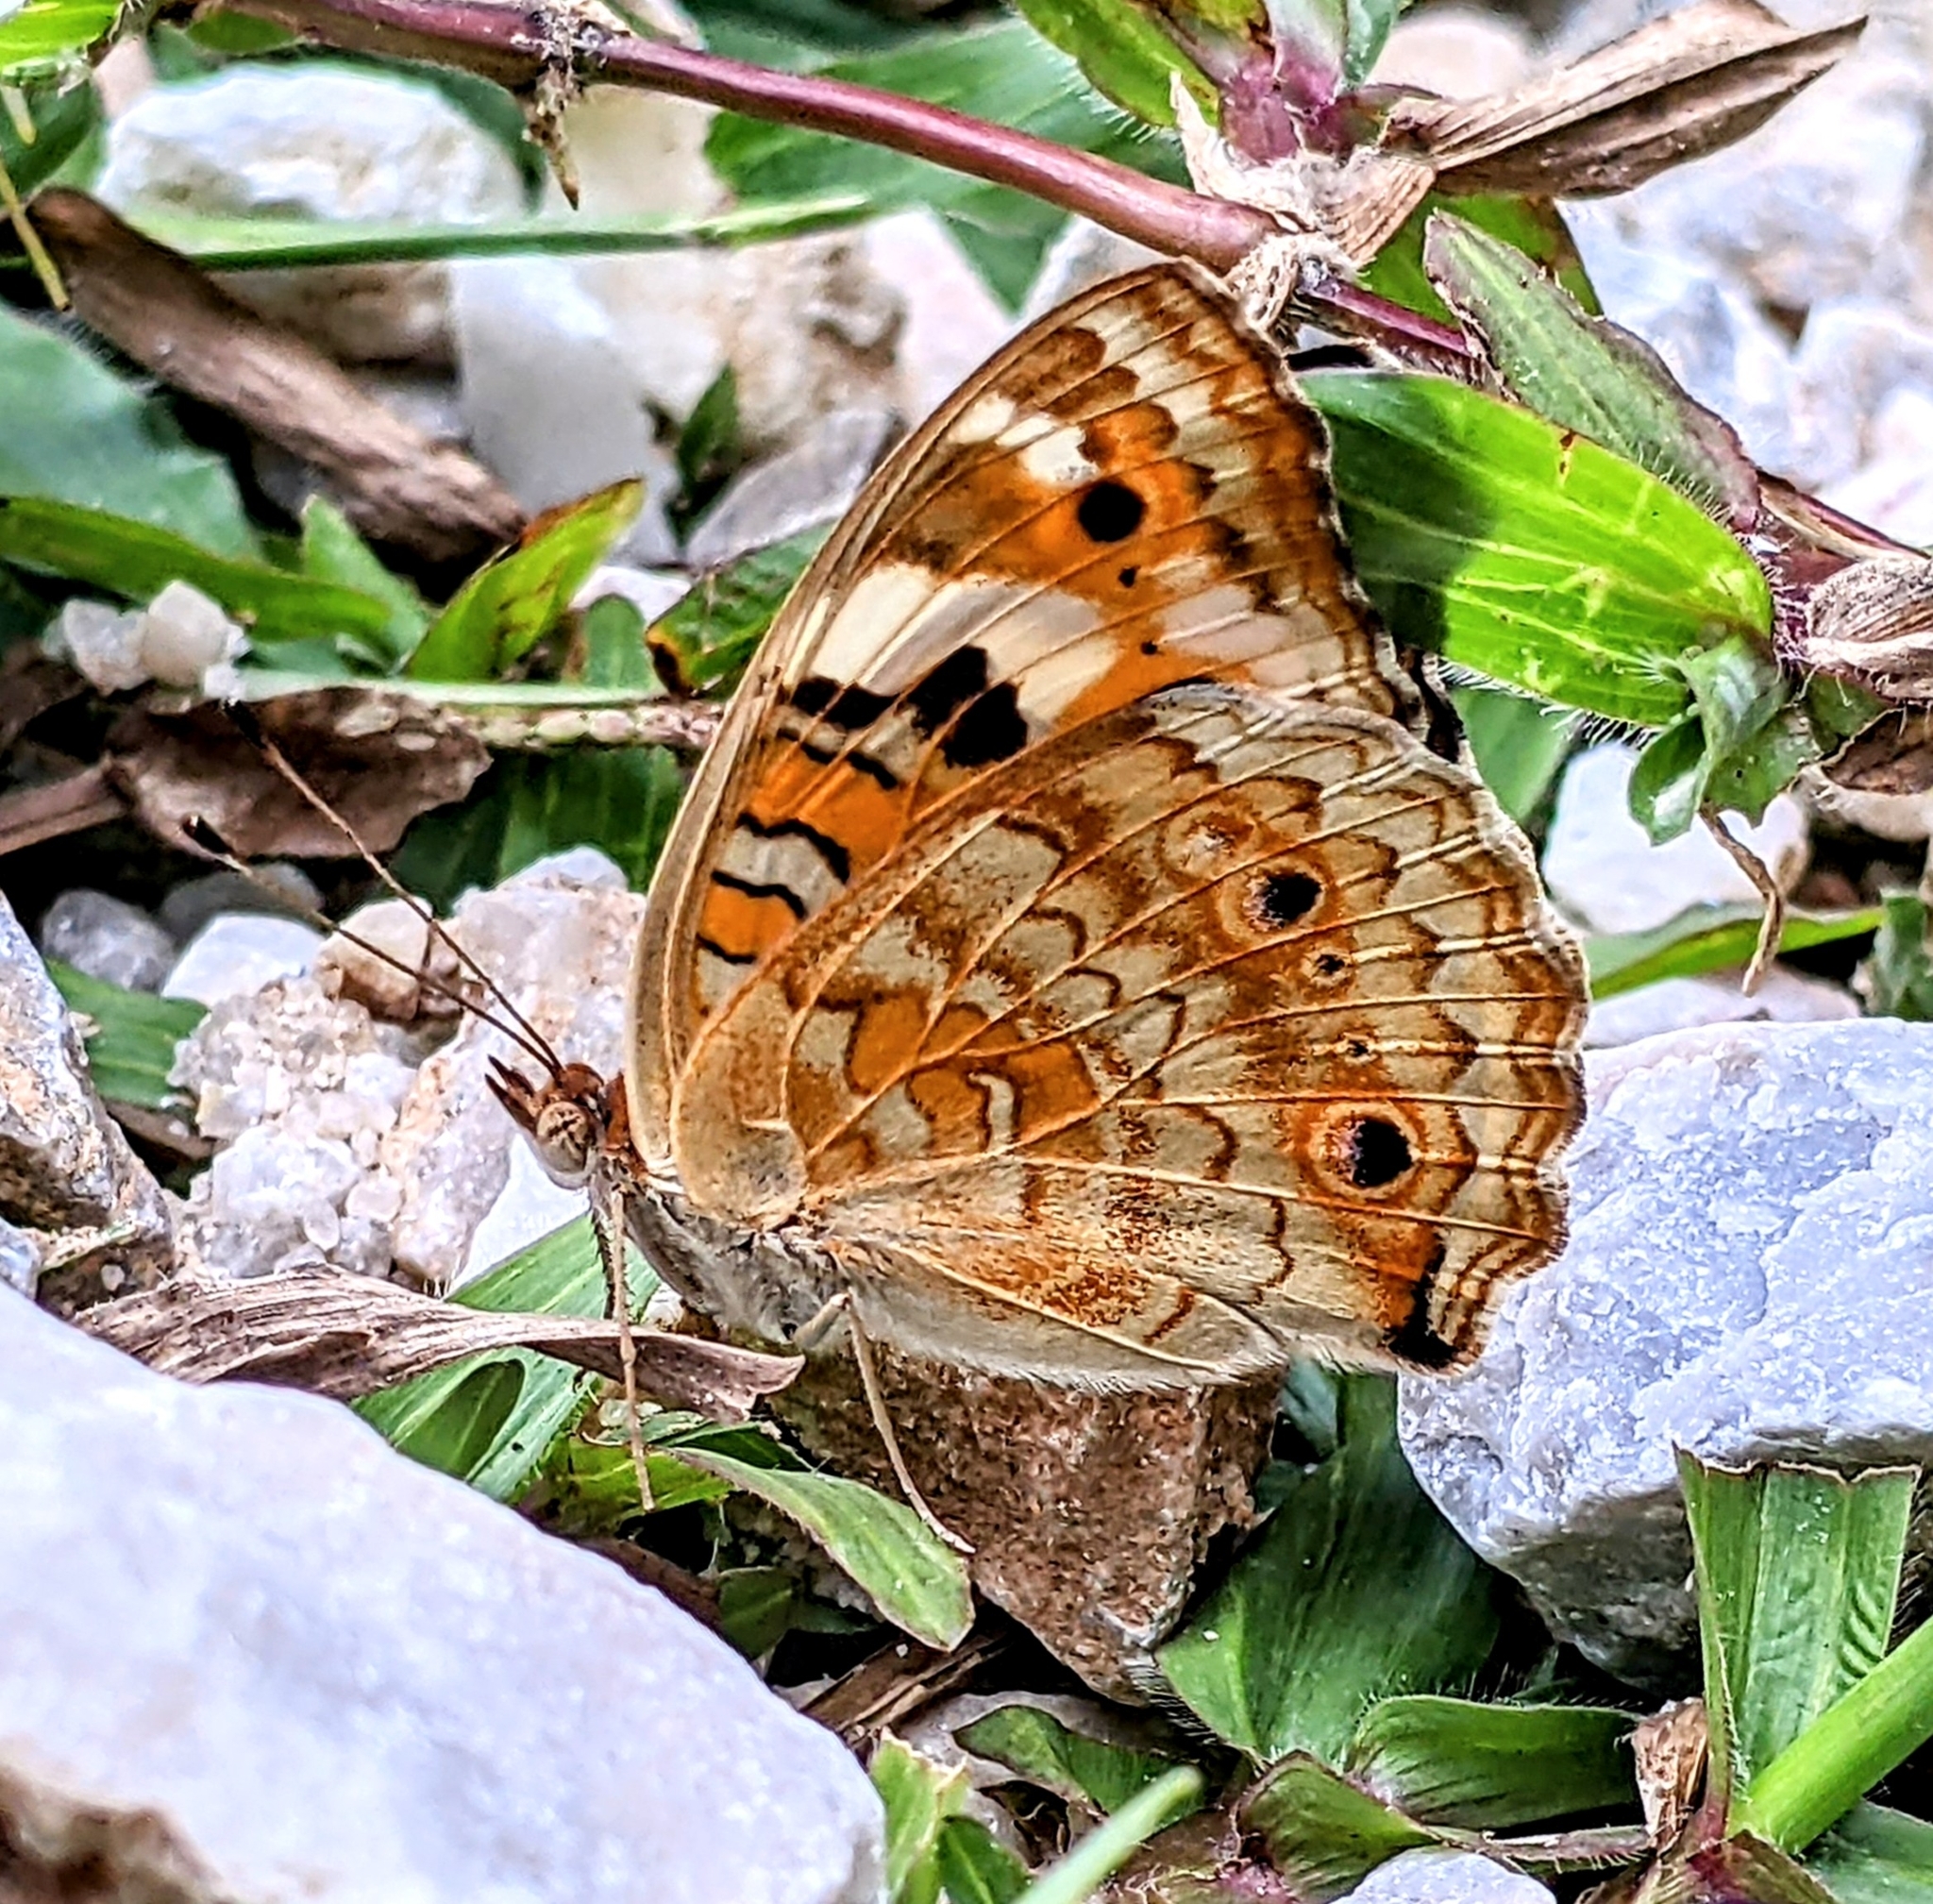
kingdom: Animalia
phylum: Arthropoda
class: Insecta
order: Lepidoptera
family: Nymphalidae
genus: Junonia
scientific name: Junonia orithya
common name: Blue pansy
